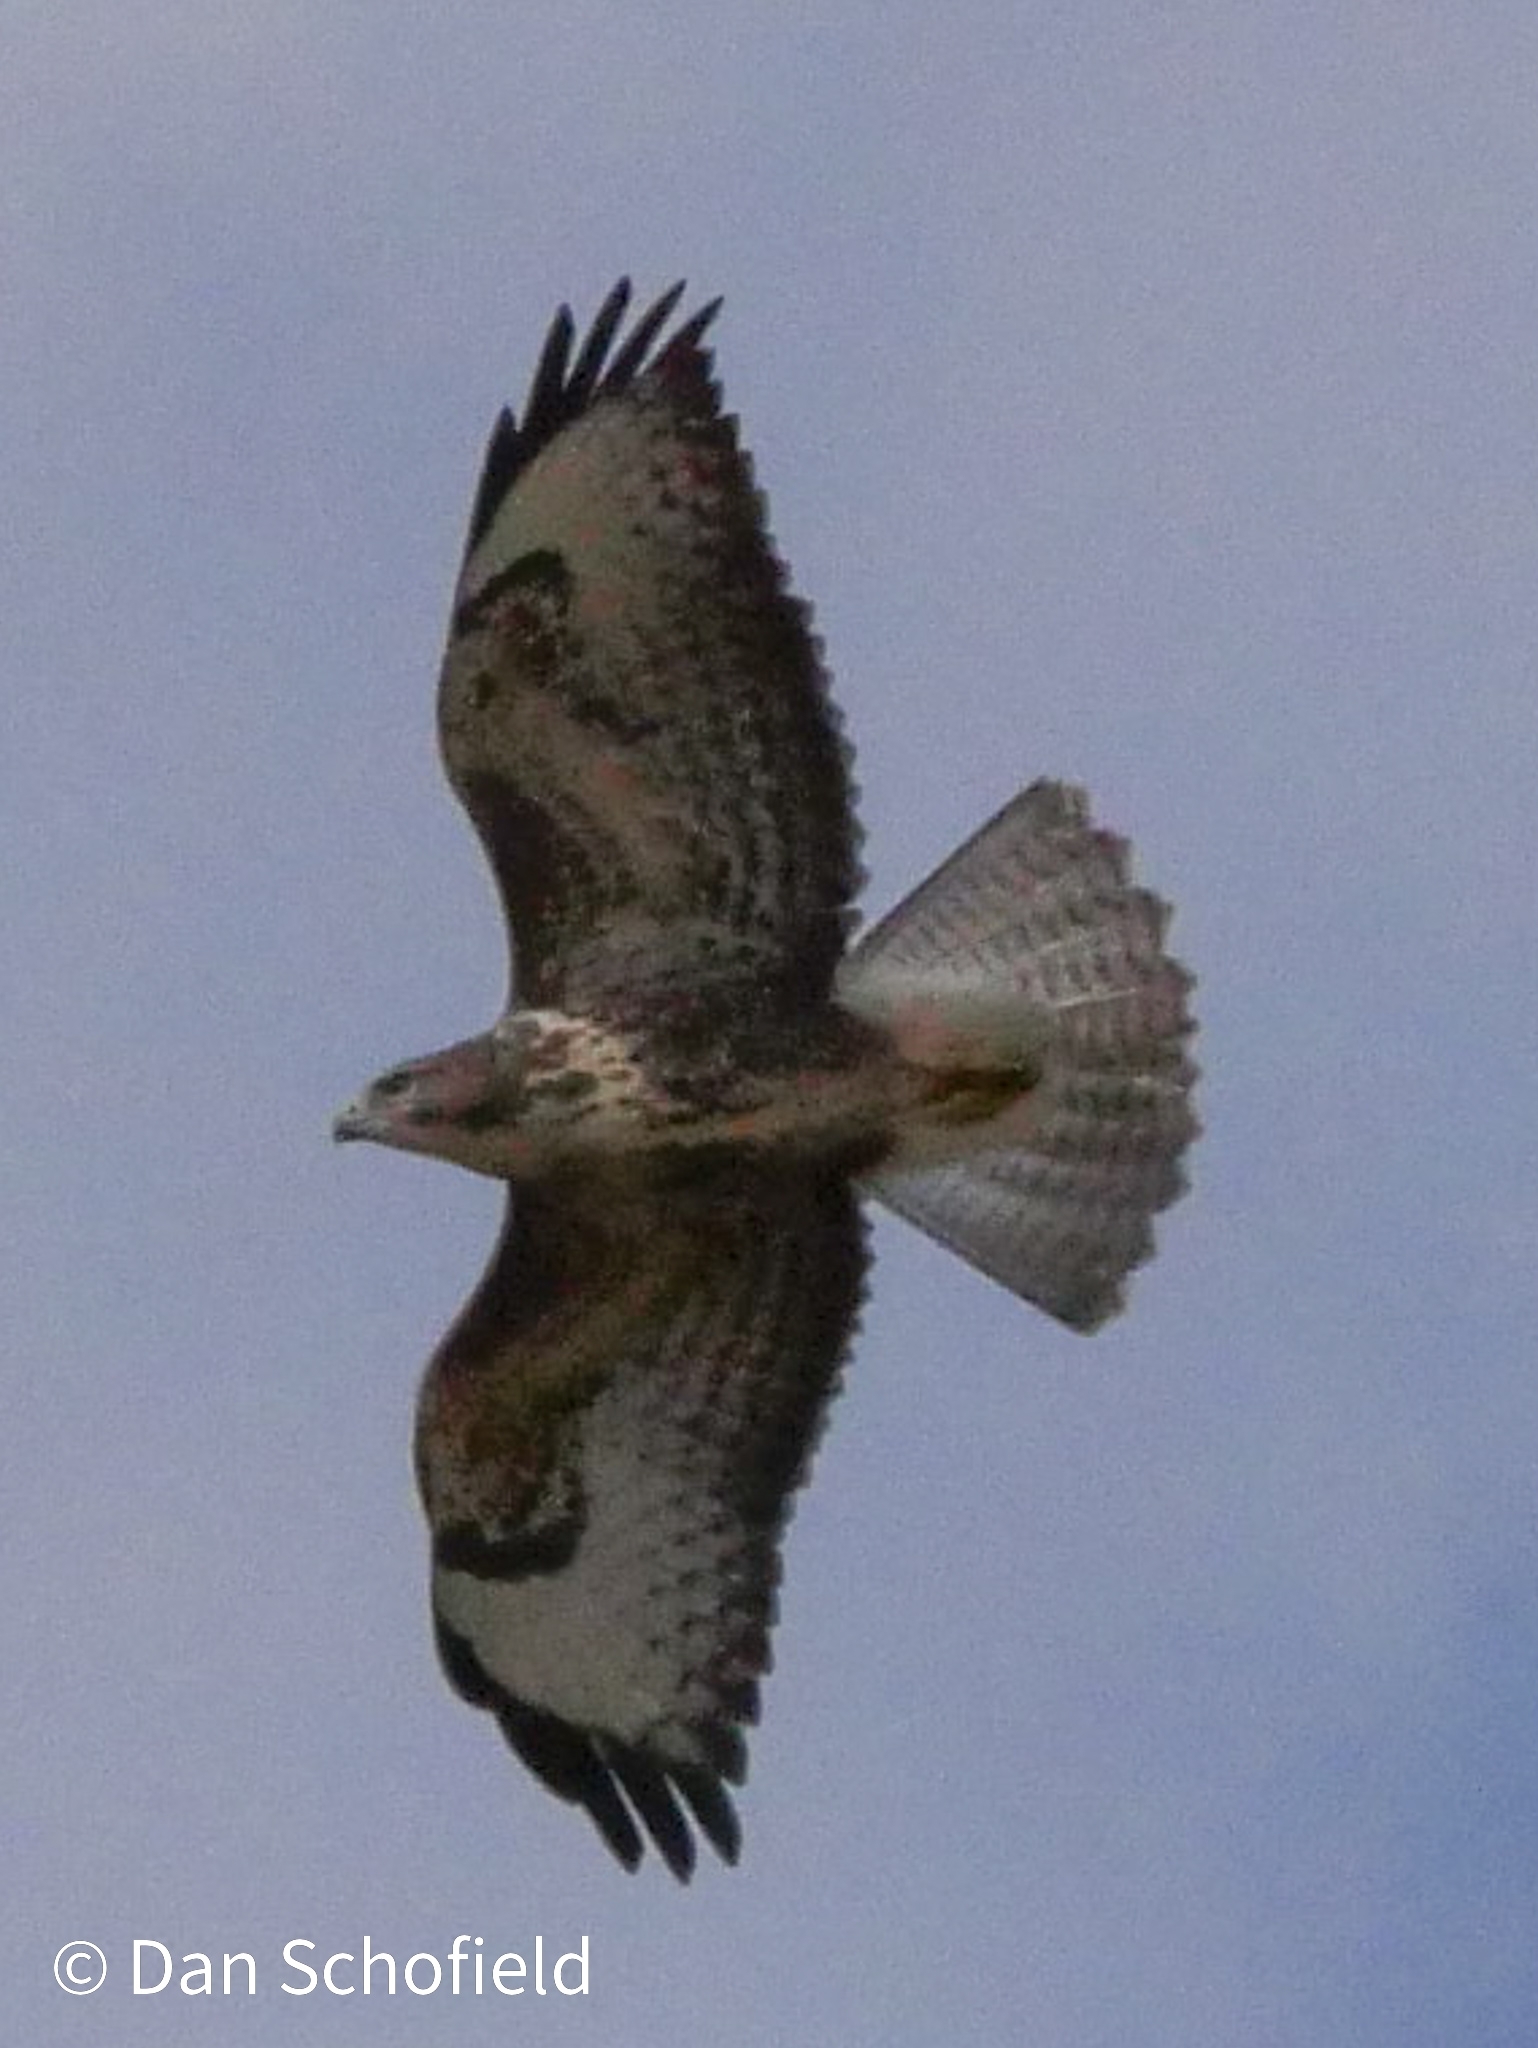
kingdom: Animalia
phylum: Chordata
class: Aves
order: Accipitriformes
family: Accipitridae
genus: Buteo
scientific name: Buteo buteo
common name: Common buzzard
